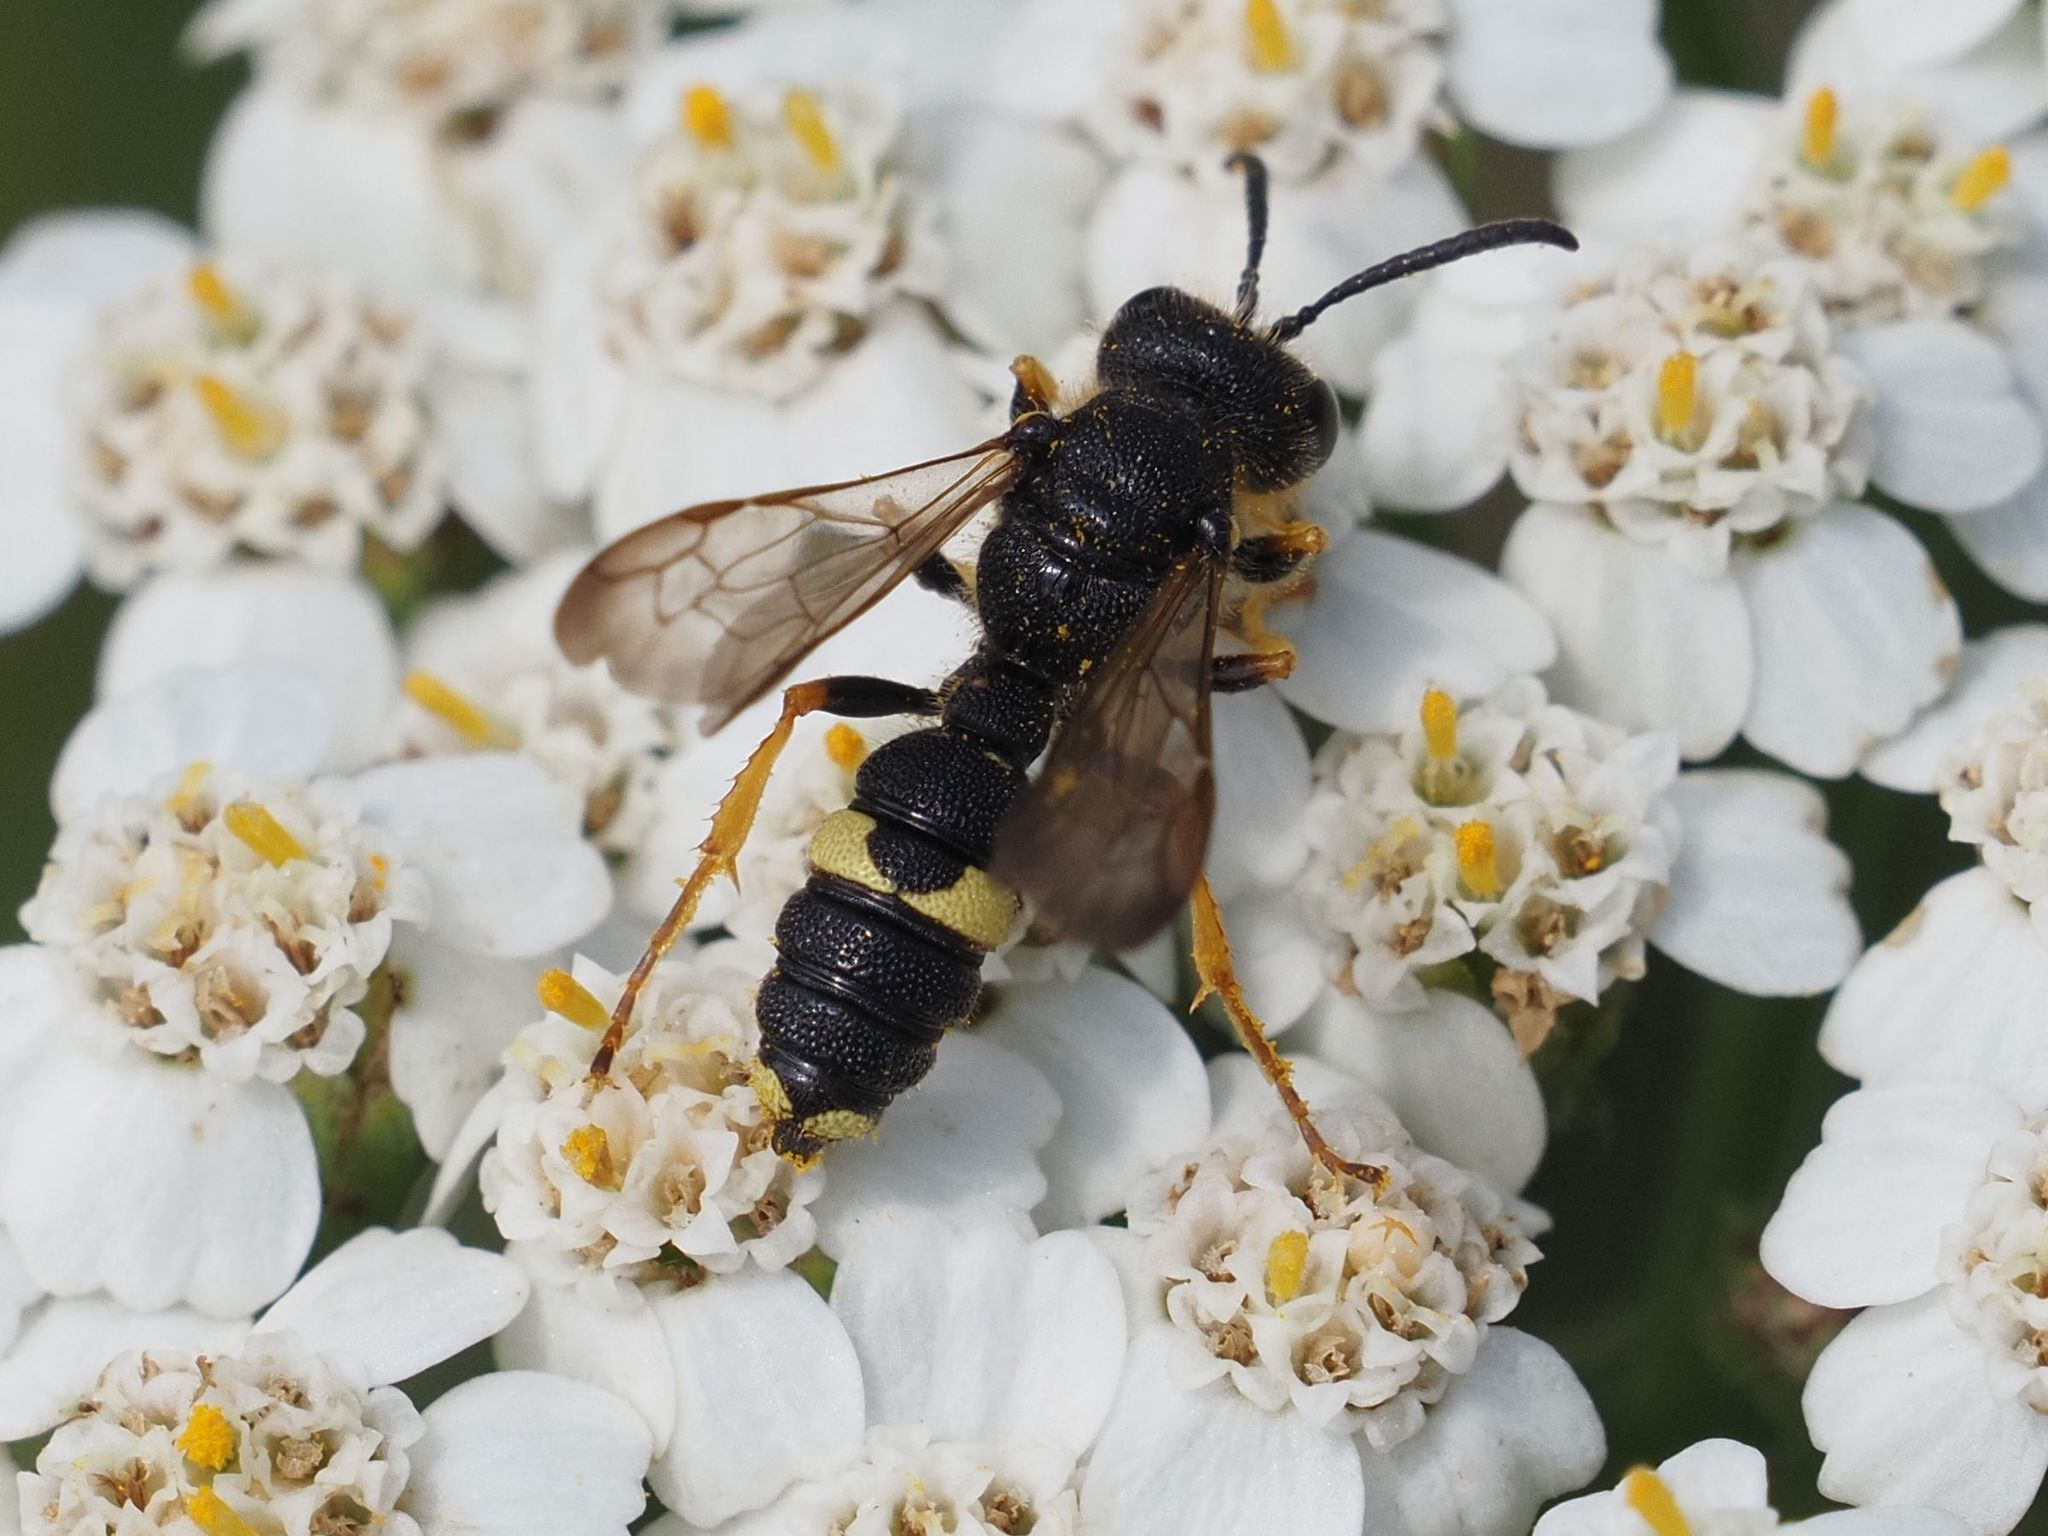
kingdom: Animalia
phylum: Arthropoda
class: Insecta
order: Hymenoptera
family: Crabronidae
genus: Cerceris
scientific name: Cerceris rybyensis
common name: Ornate tailed digger wasp
